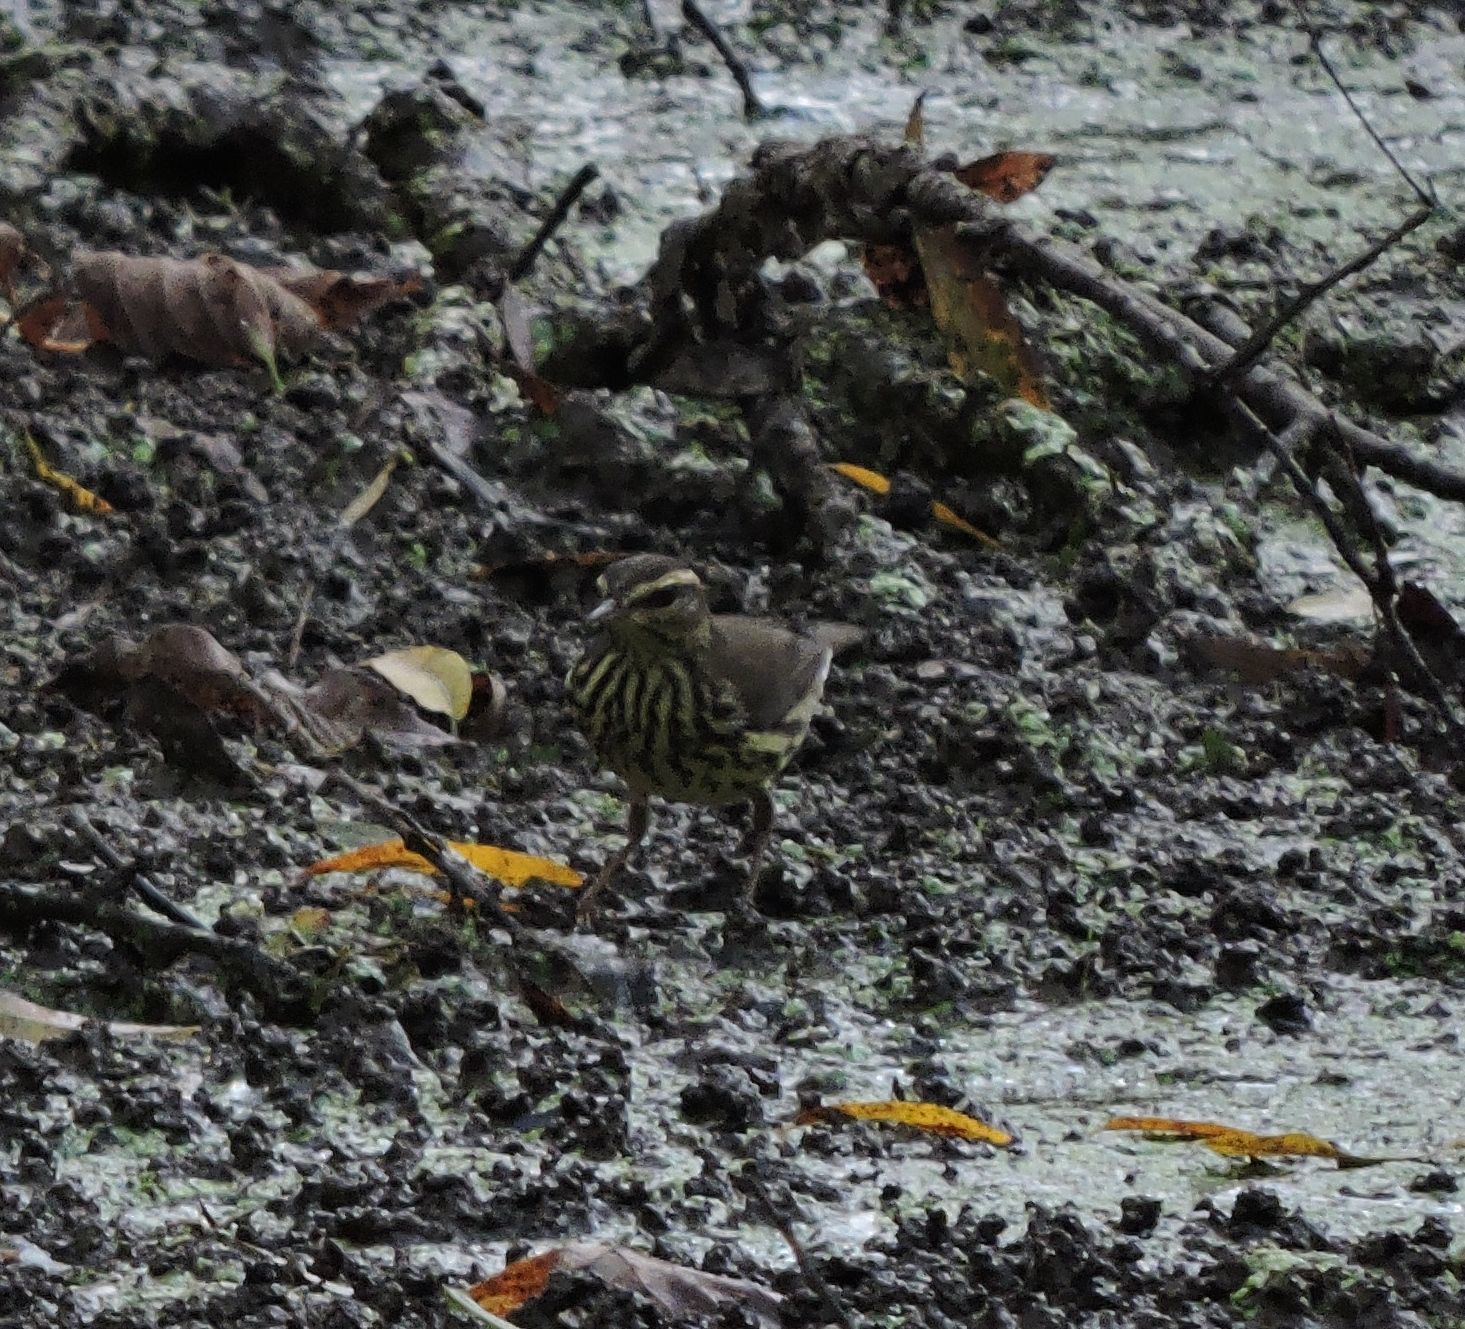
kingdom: Animalia
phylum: Chordata
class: Aves
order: Passeriformes
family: Parulidae
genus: Parkesia
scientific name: Parkesia noveboracensis
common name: Northern waterthrush
